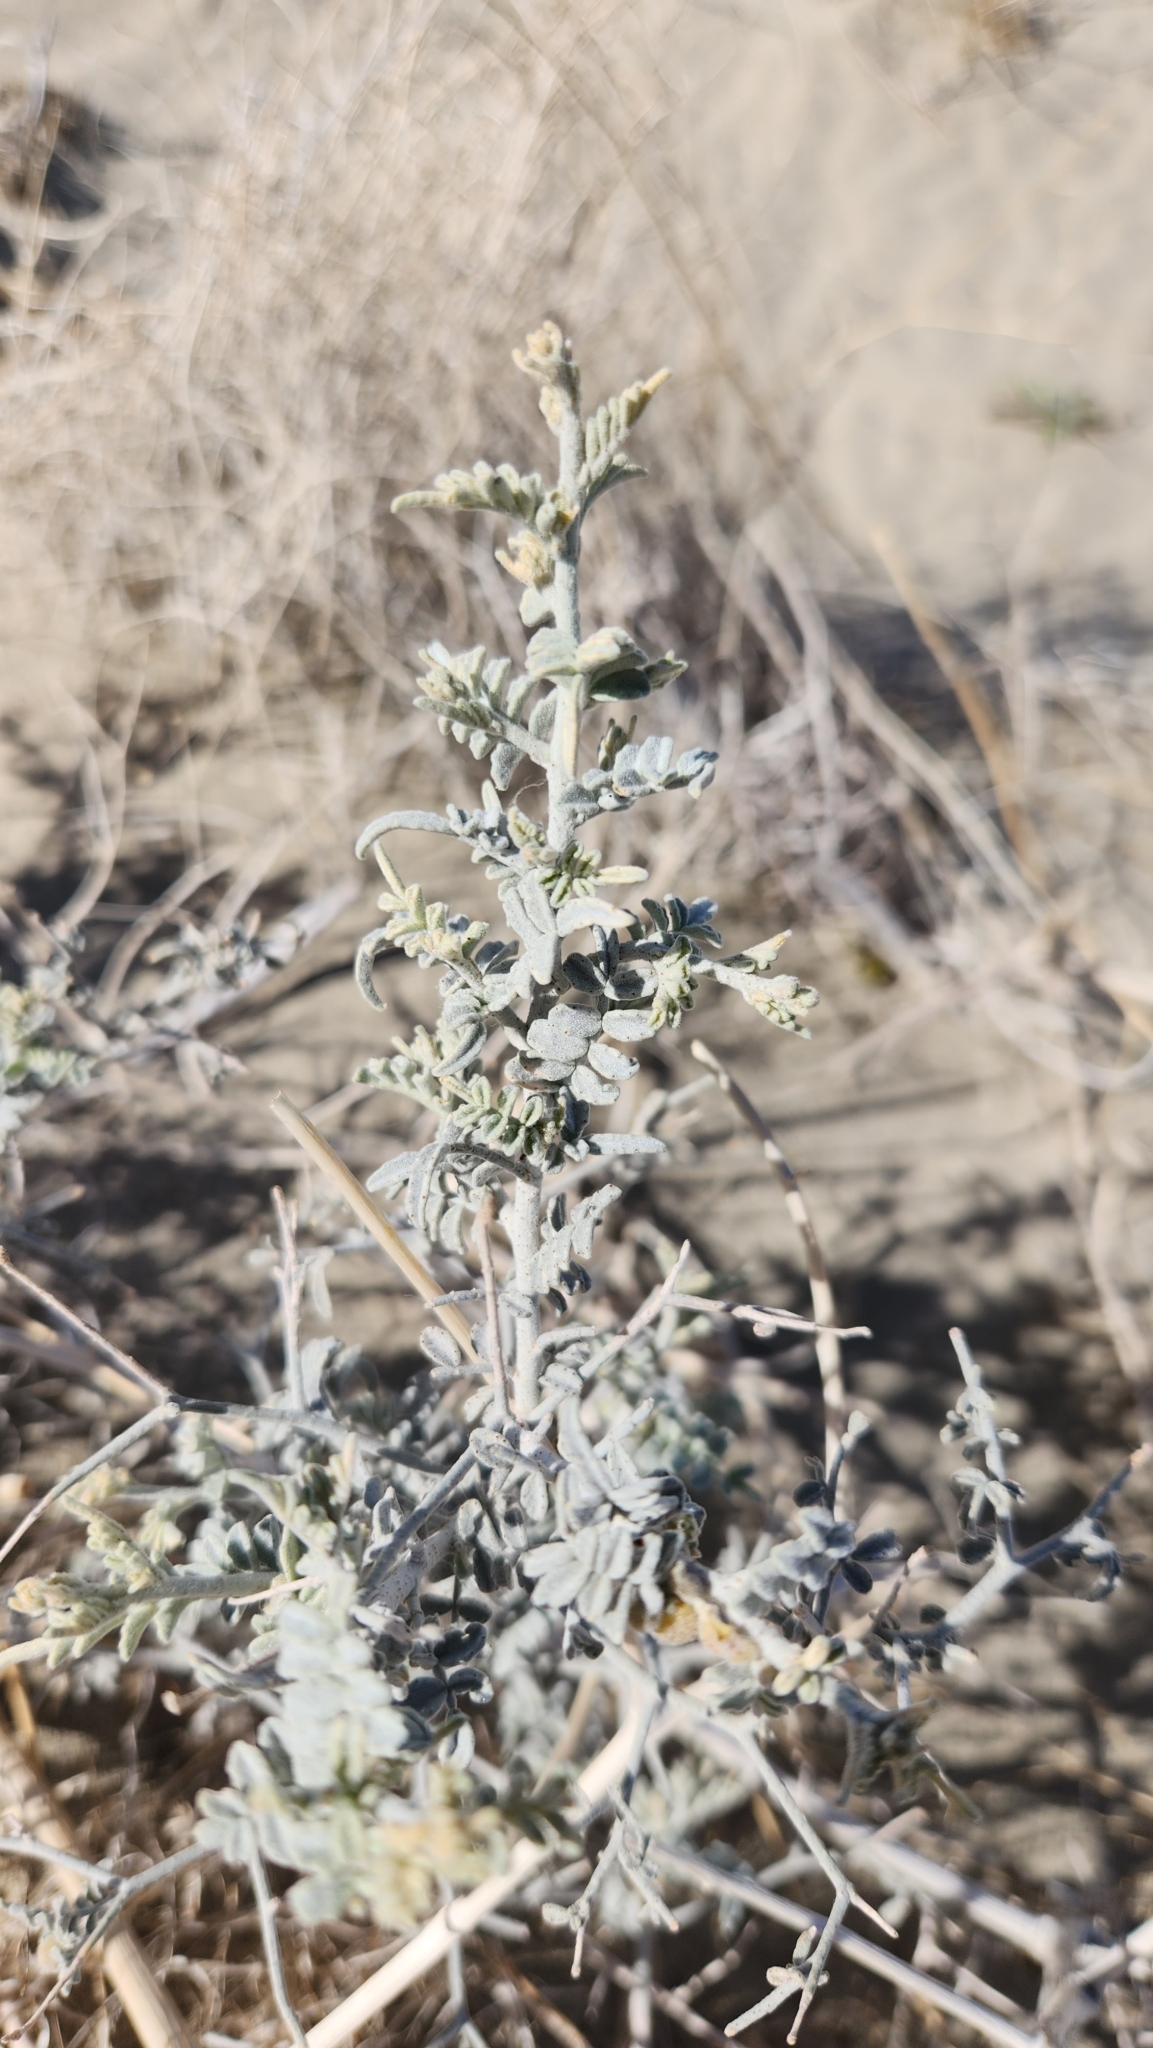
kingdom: Plantae
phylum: Tracheophyta
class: Magnoliopsida
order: Fabales
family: Fabaceae
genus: Psorothamnus
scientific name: Psorothamnus emoryi
